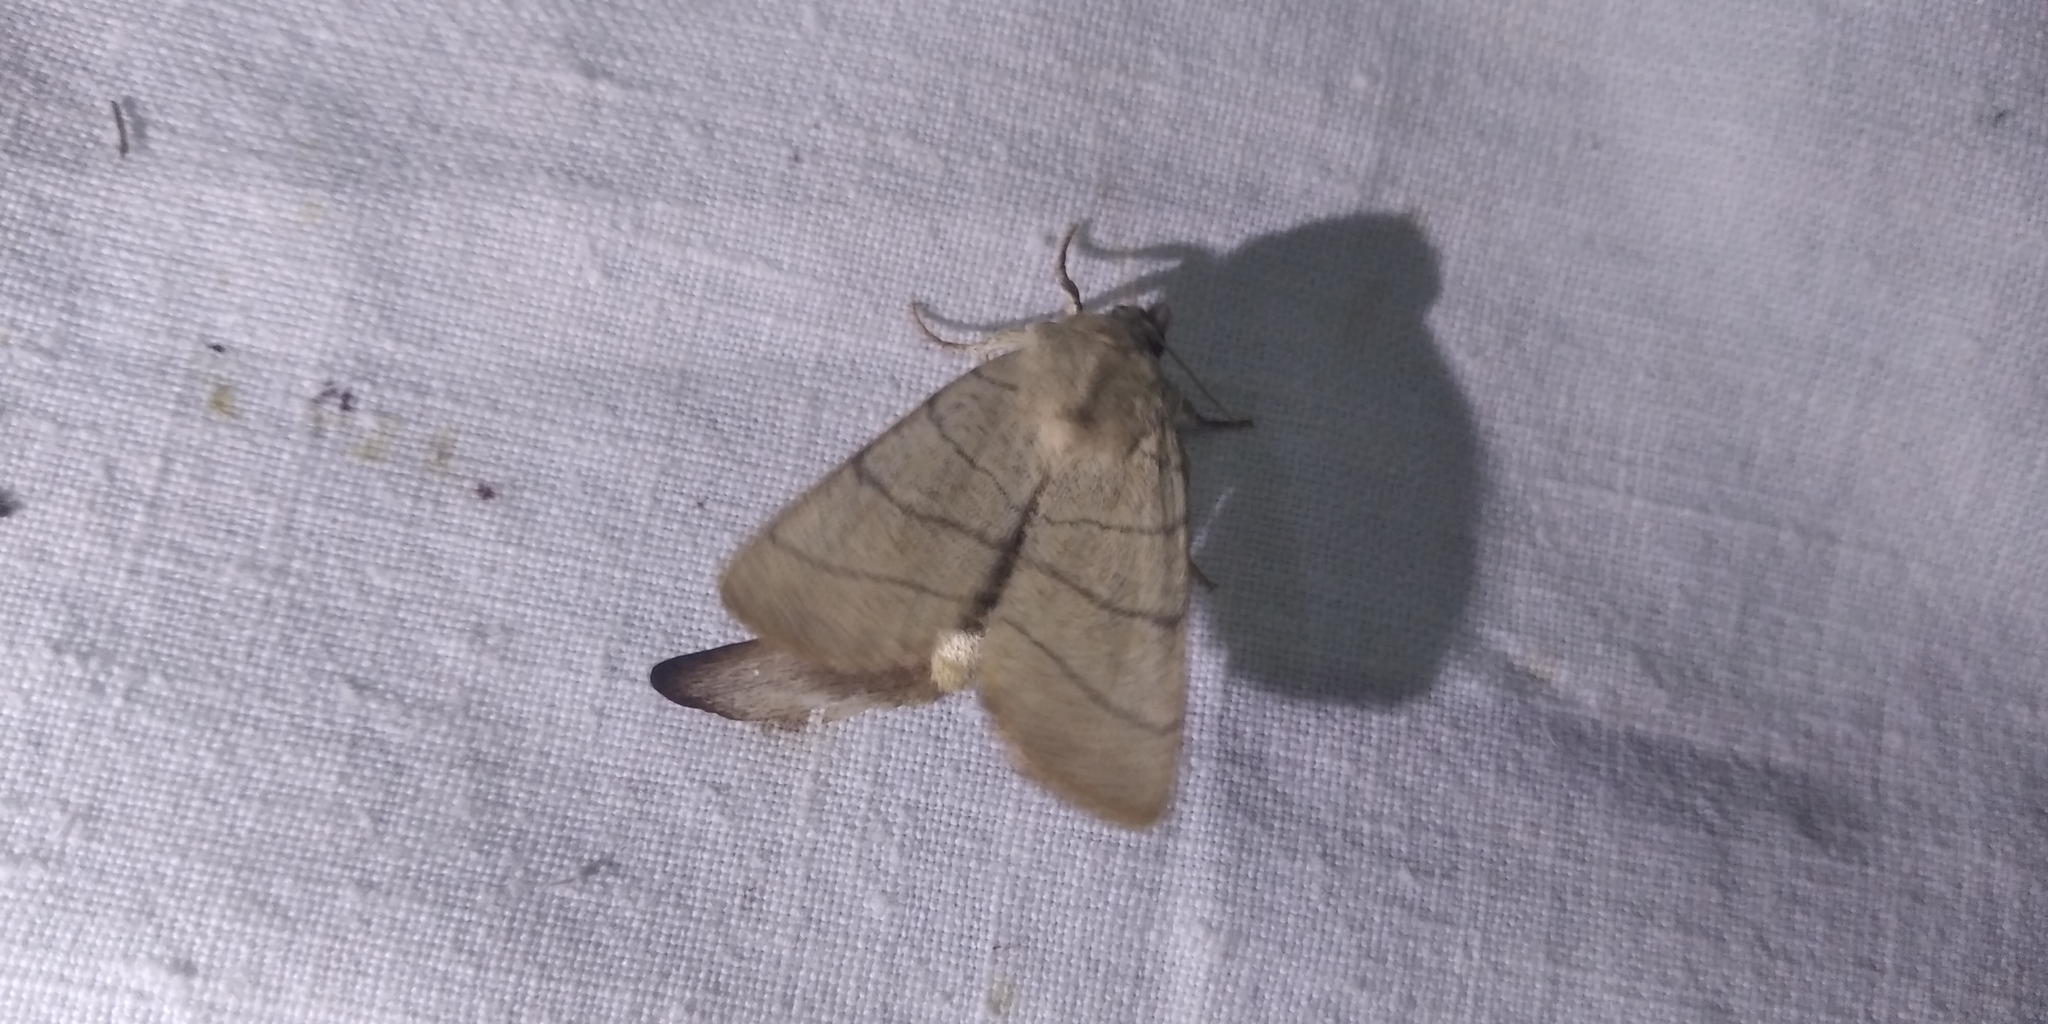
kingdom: Animalia
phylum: Arthropoda
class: Insecta
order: Lepidoptera
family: Noctuidae
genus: Charanyca
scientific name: Charanyca trigrammica
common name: Treble lines
